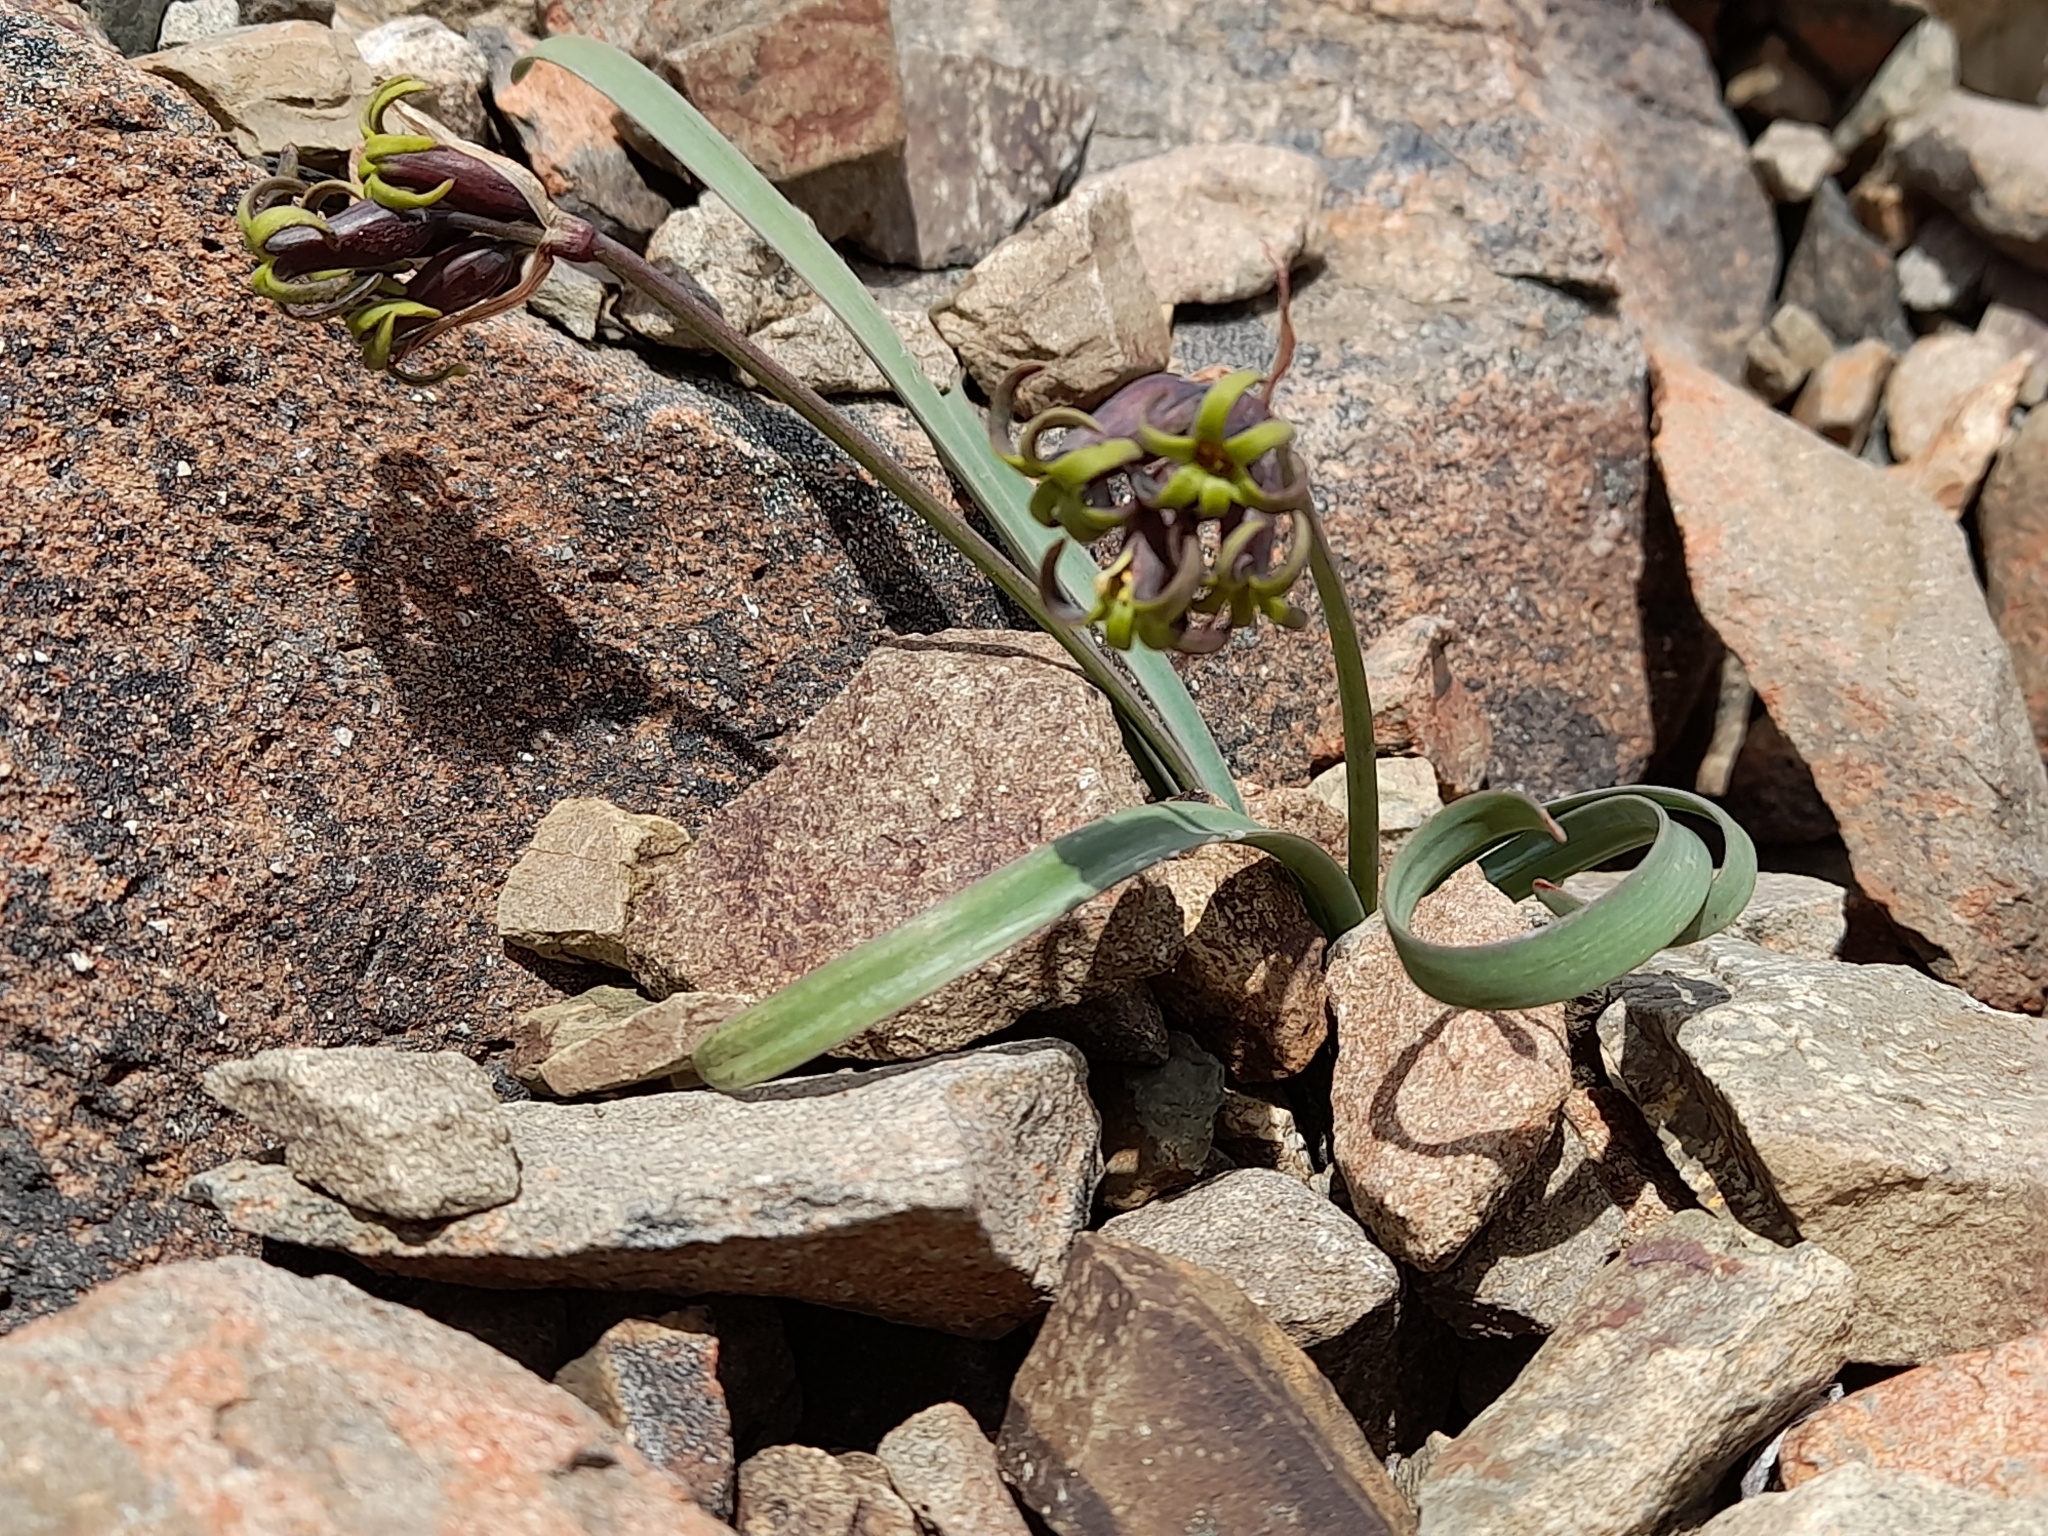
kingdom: Plantae
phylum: Tracheophyta
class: Liliopsida
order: Asparagales
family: Amaryllidaceae
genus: Tristagma
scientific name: Tristagma nivale
